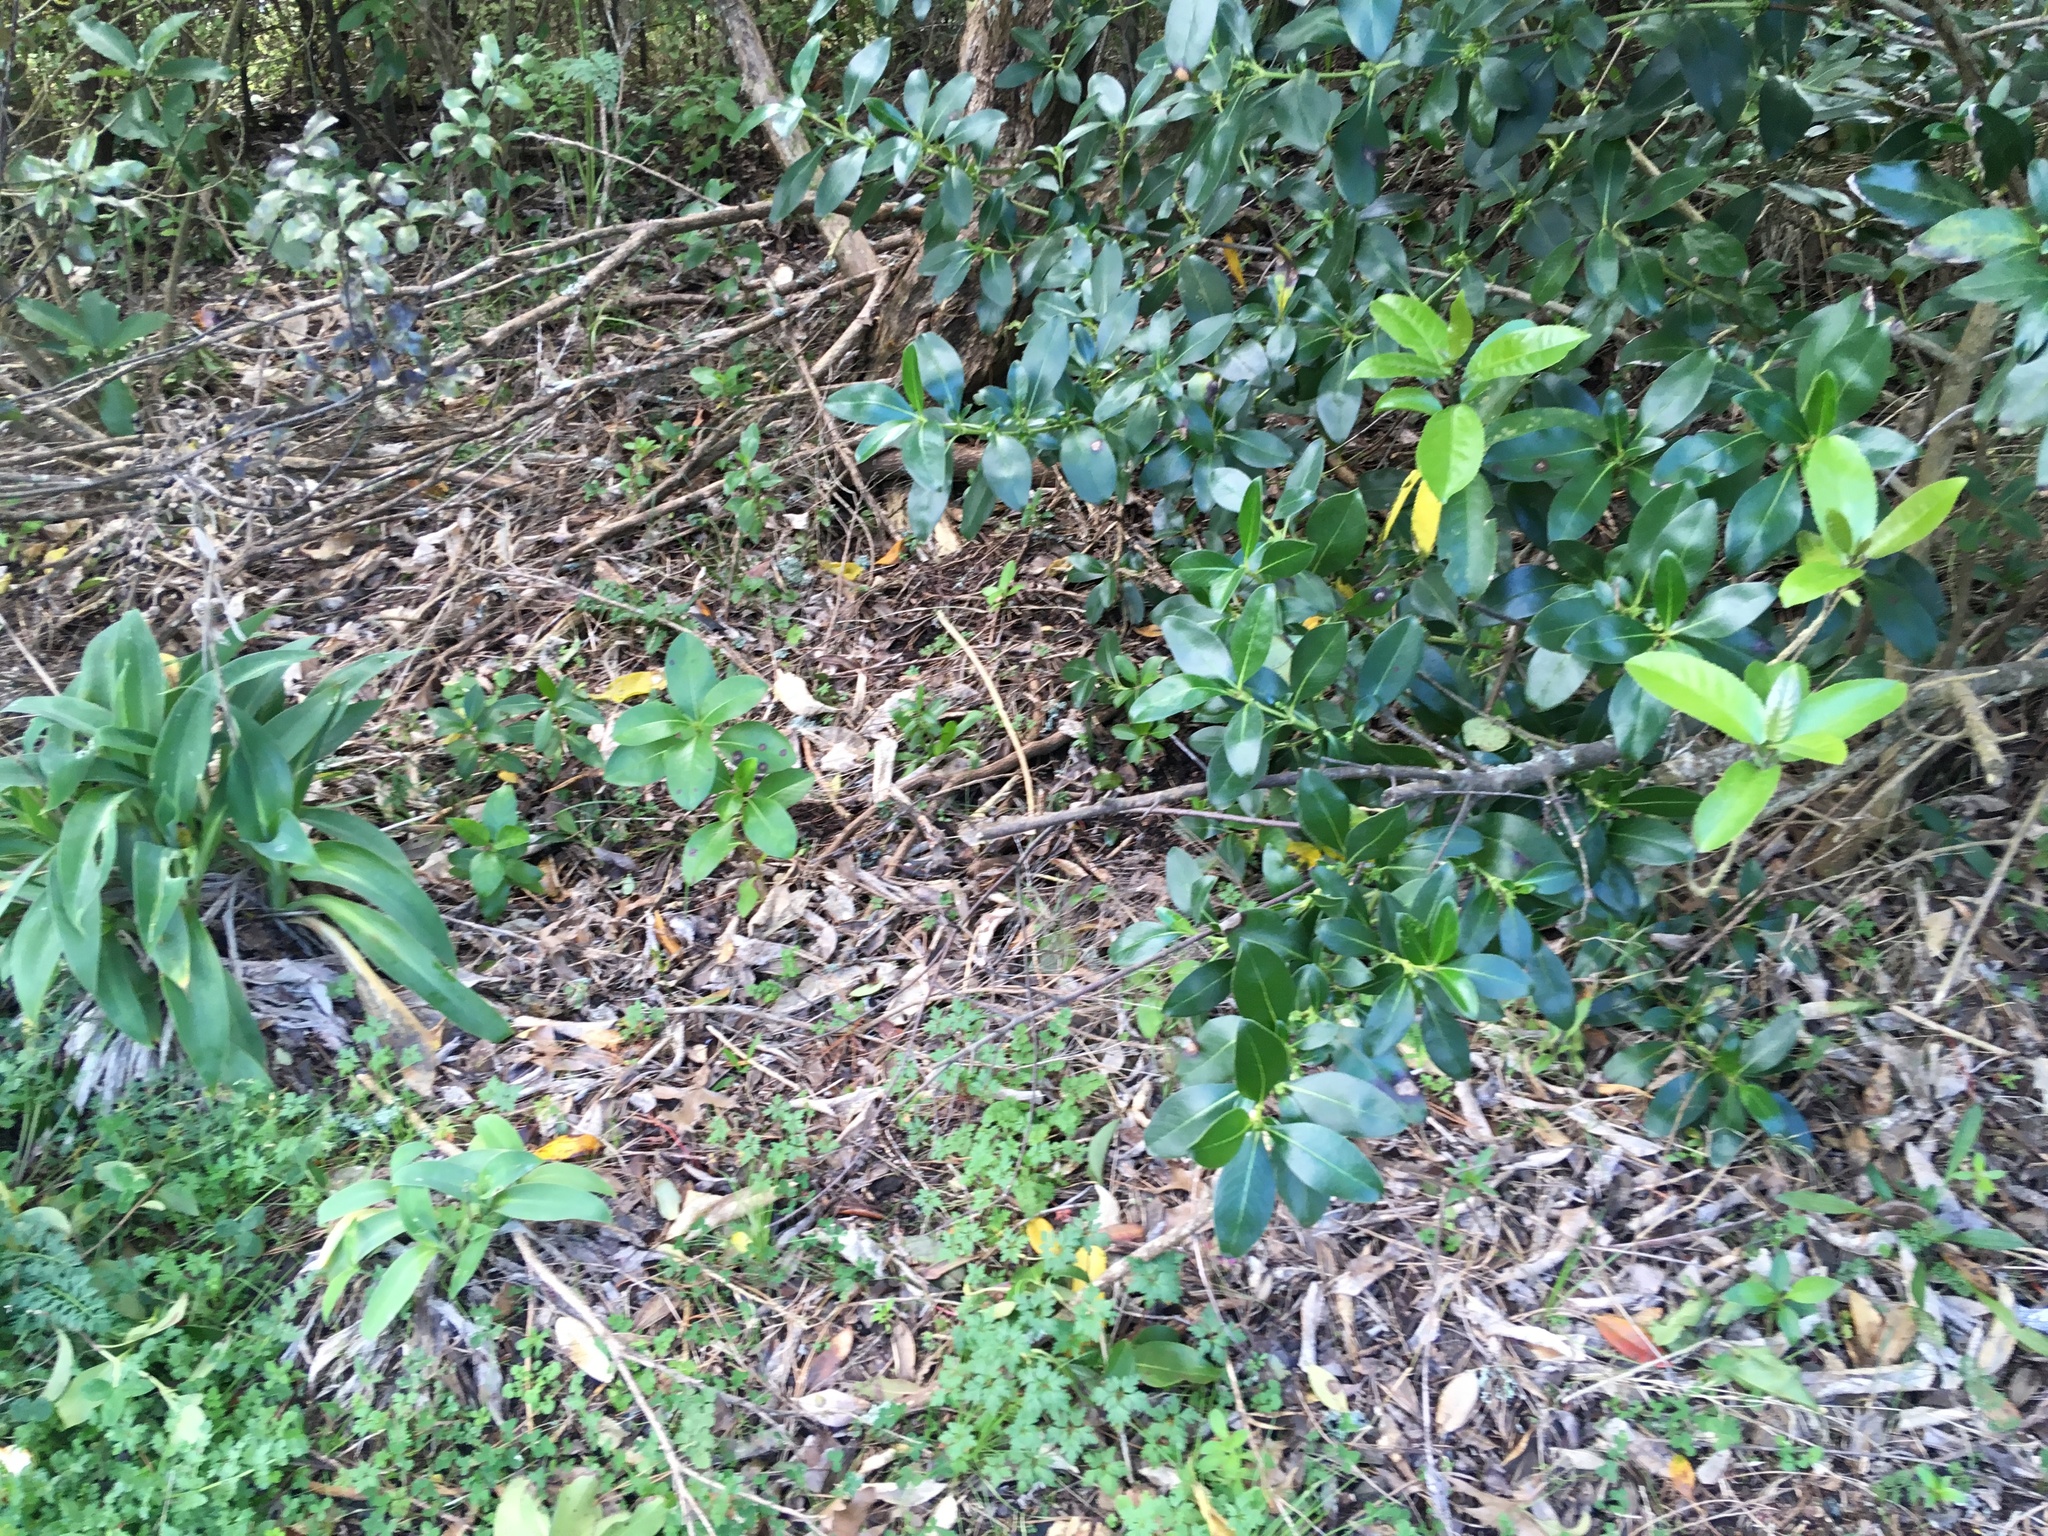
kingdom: Plantae
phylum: Tracheophyta
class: Liliopsida
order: Asparagales
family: Asparagaceae
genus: Arthropodium
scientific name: Arthropodium cirratum
